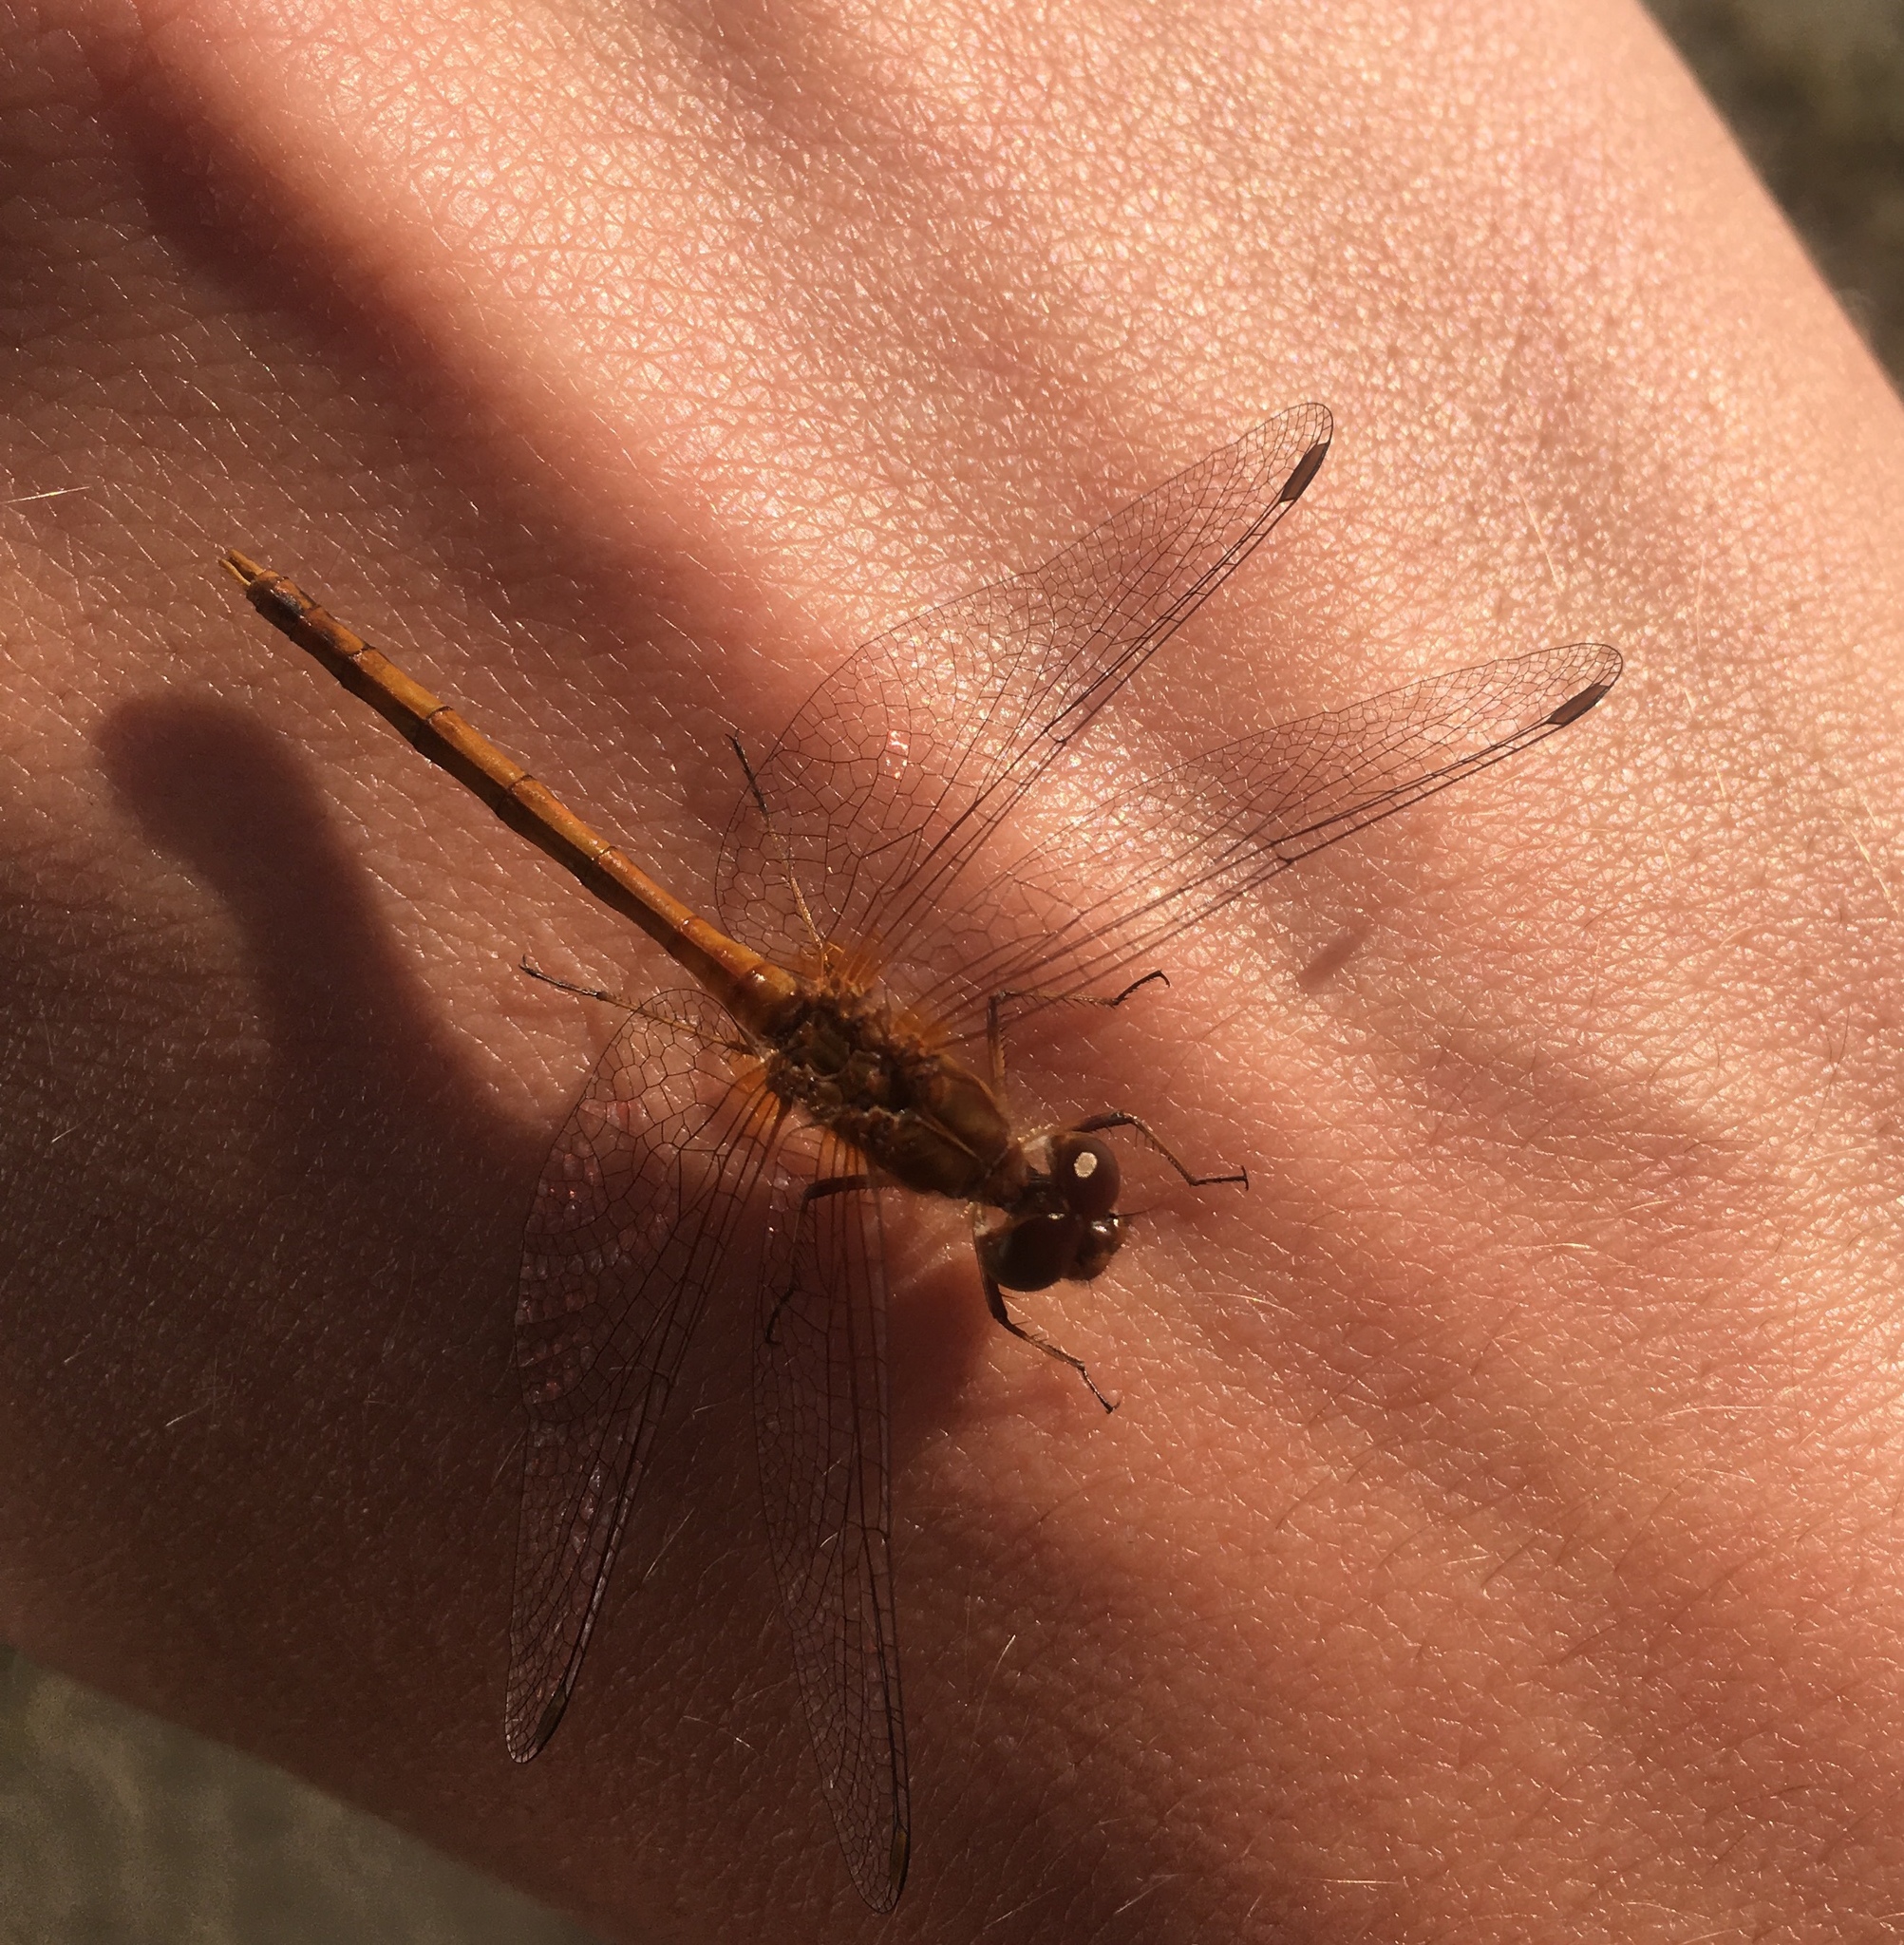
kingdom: Animalia
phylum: Arthropoda
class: Insecta
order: Odonata
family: Libellulidae
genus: Sympetrum
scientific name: Sympetrum vicinum
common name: Autumn meadowhawk
